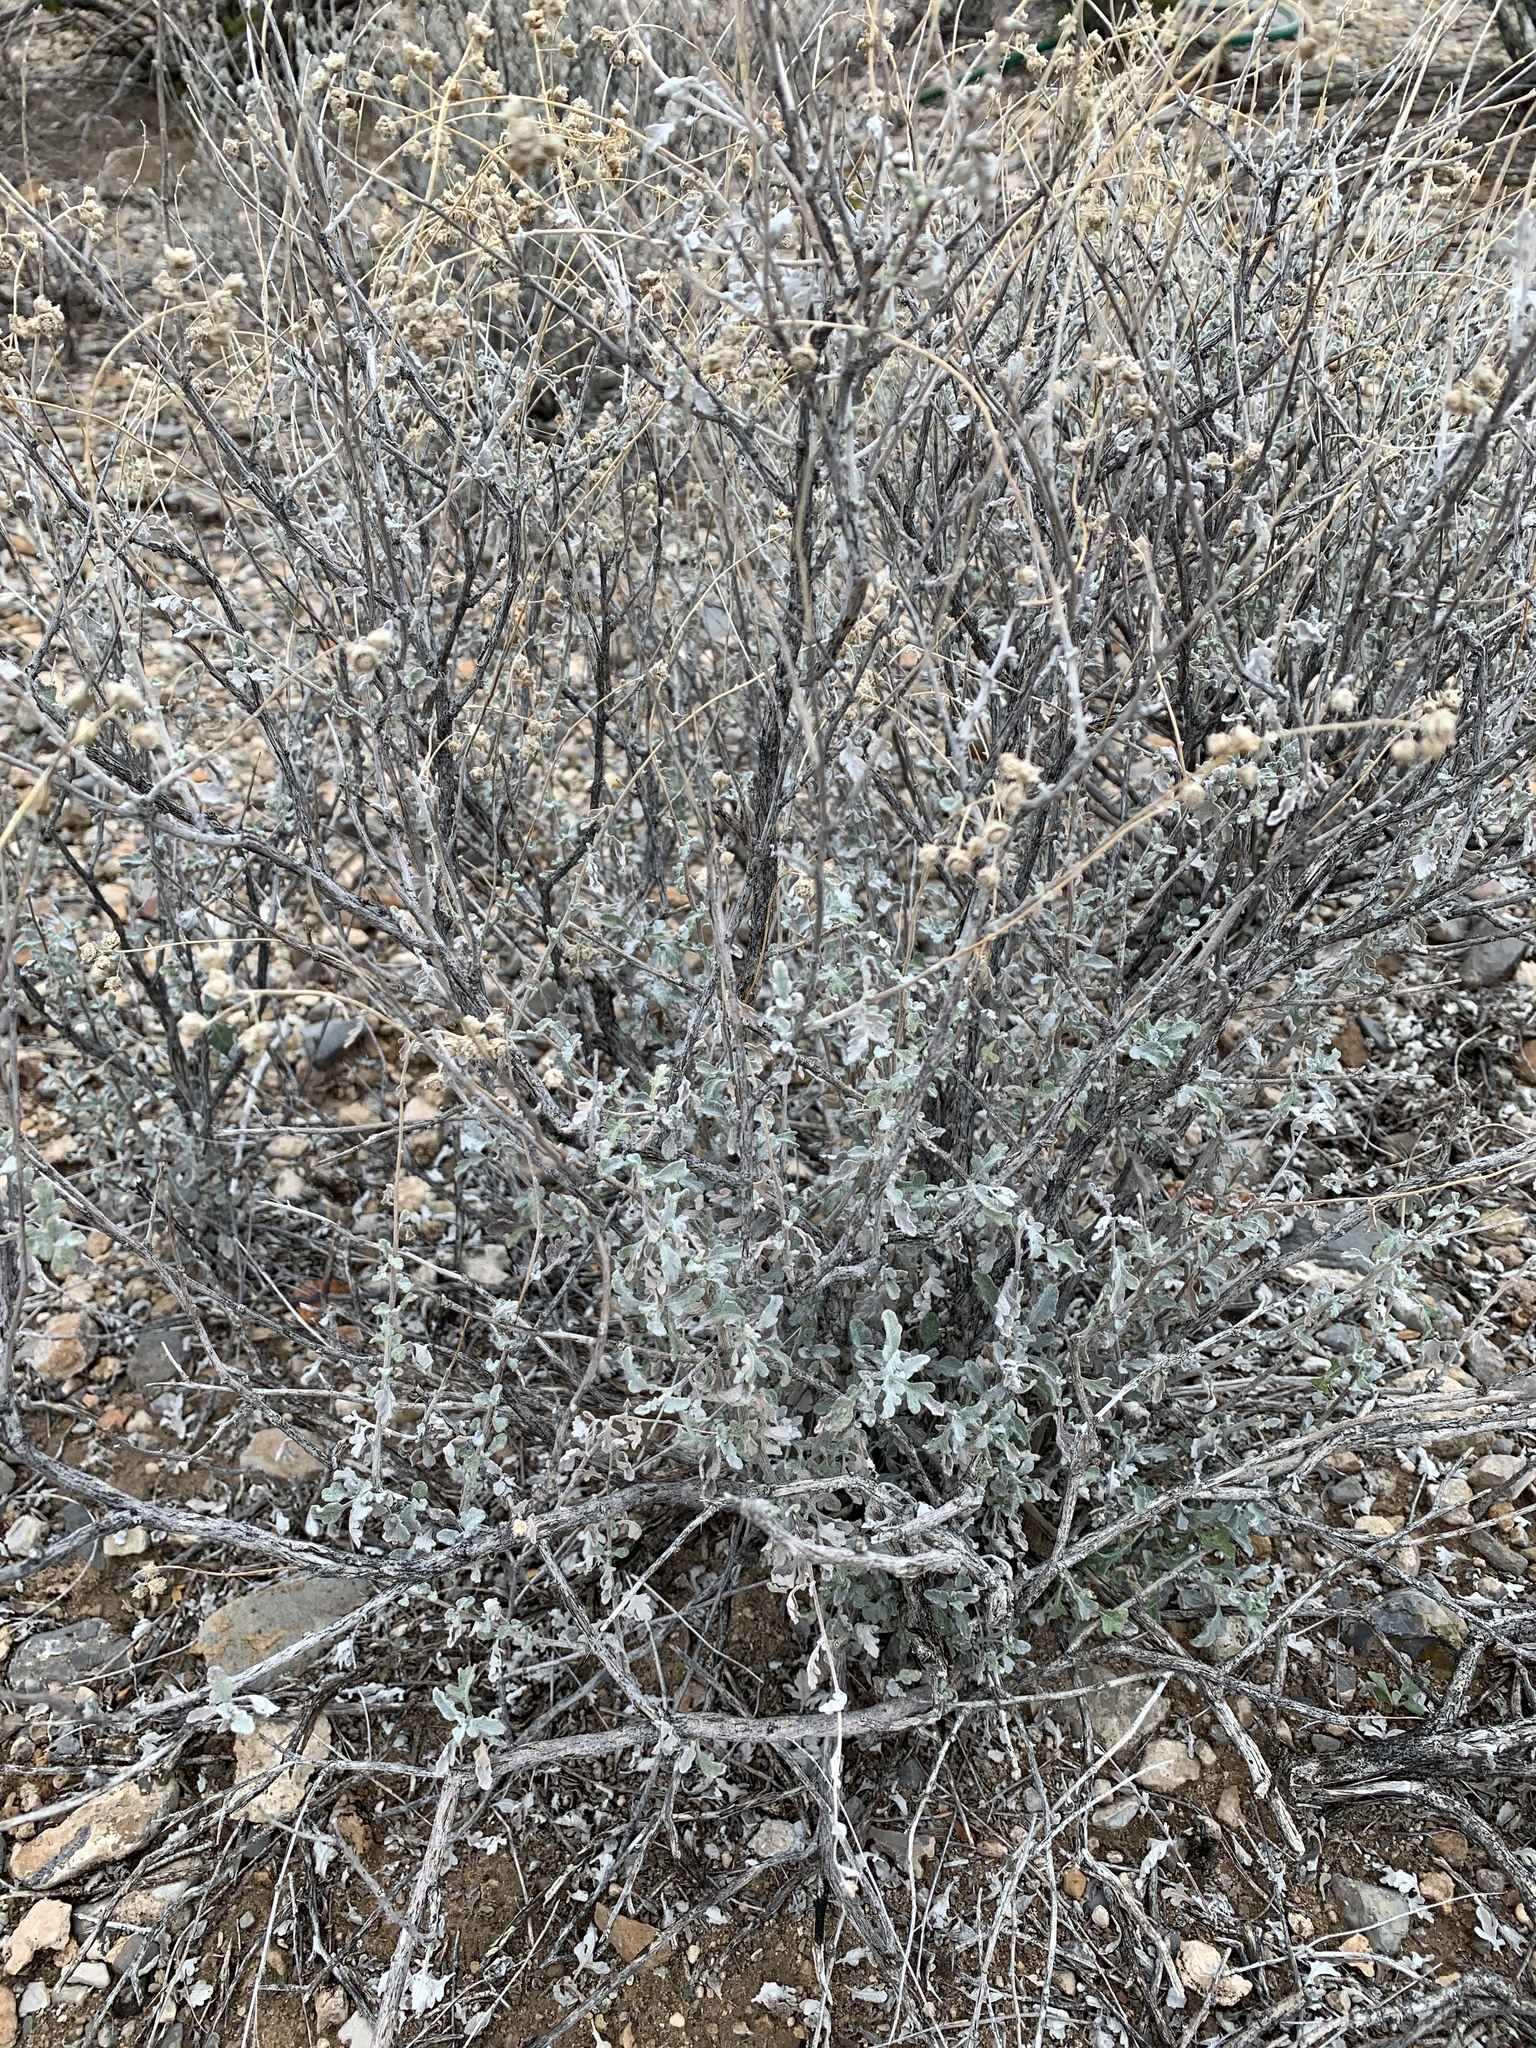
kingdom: Plantae
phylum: Tracheophyta
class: Magnoliopsida
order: Asterales
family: Asteraceae
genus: Parthenium
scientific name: Parthenium incanum
